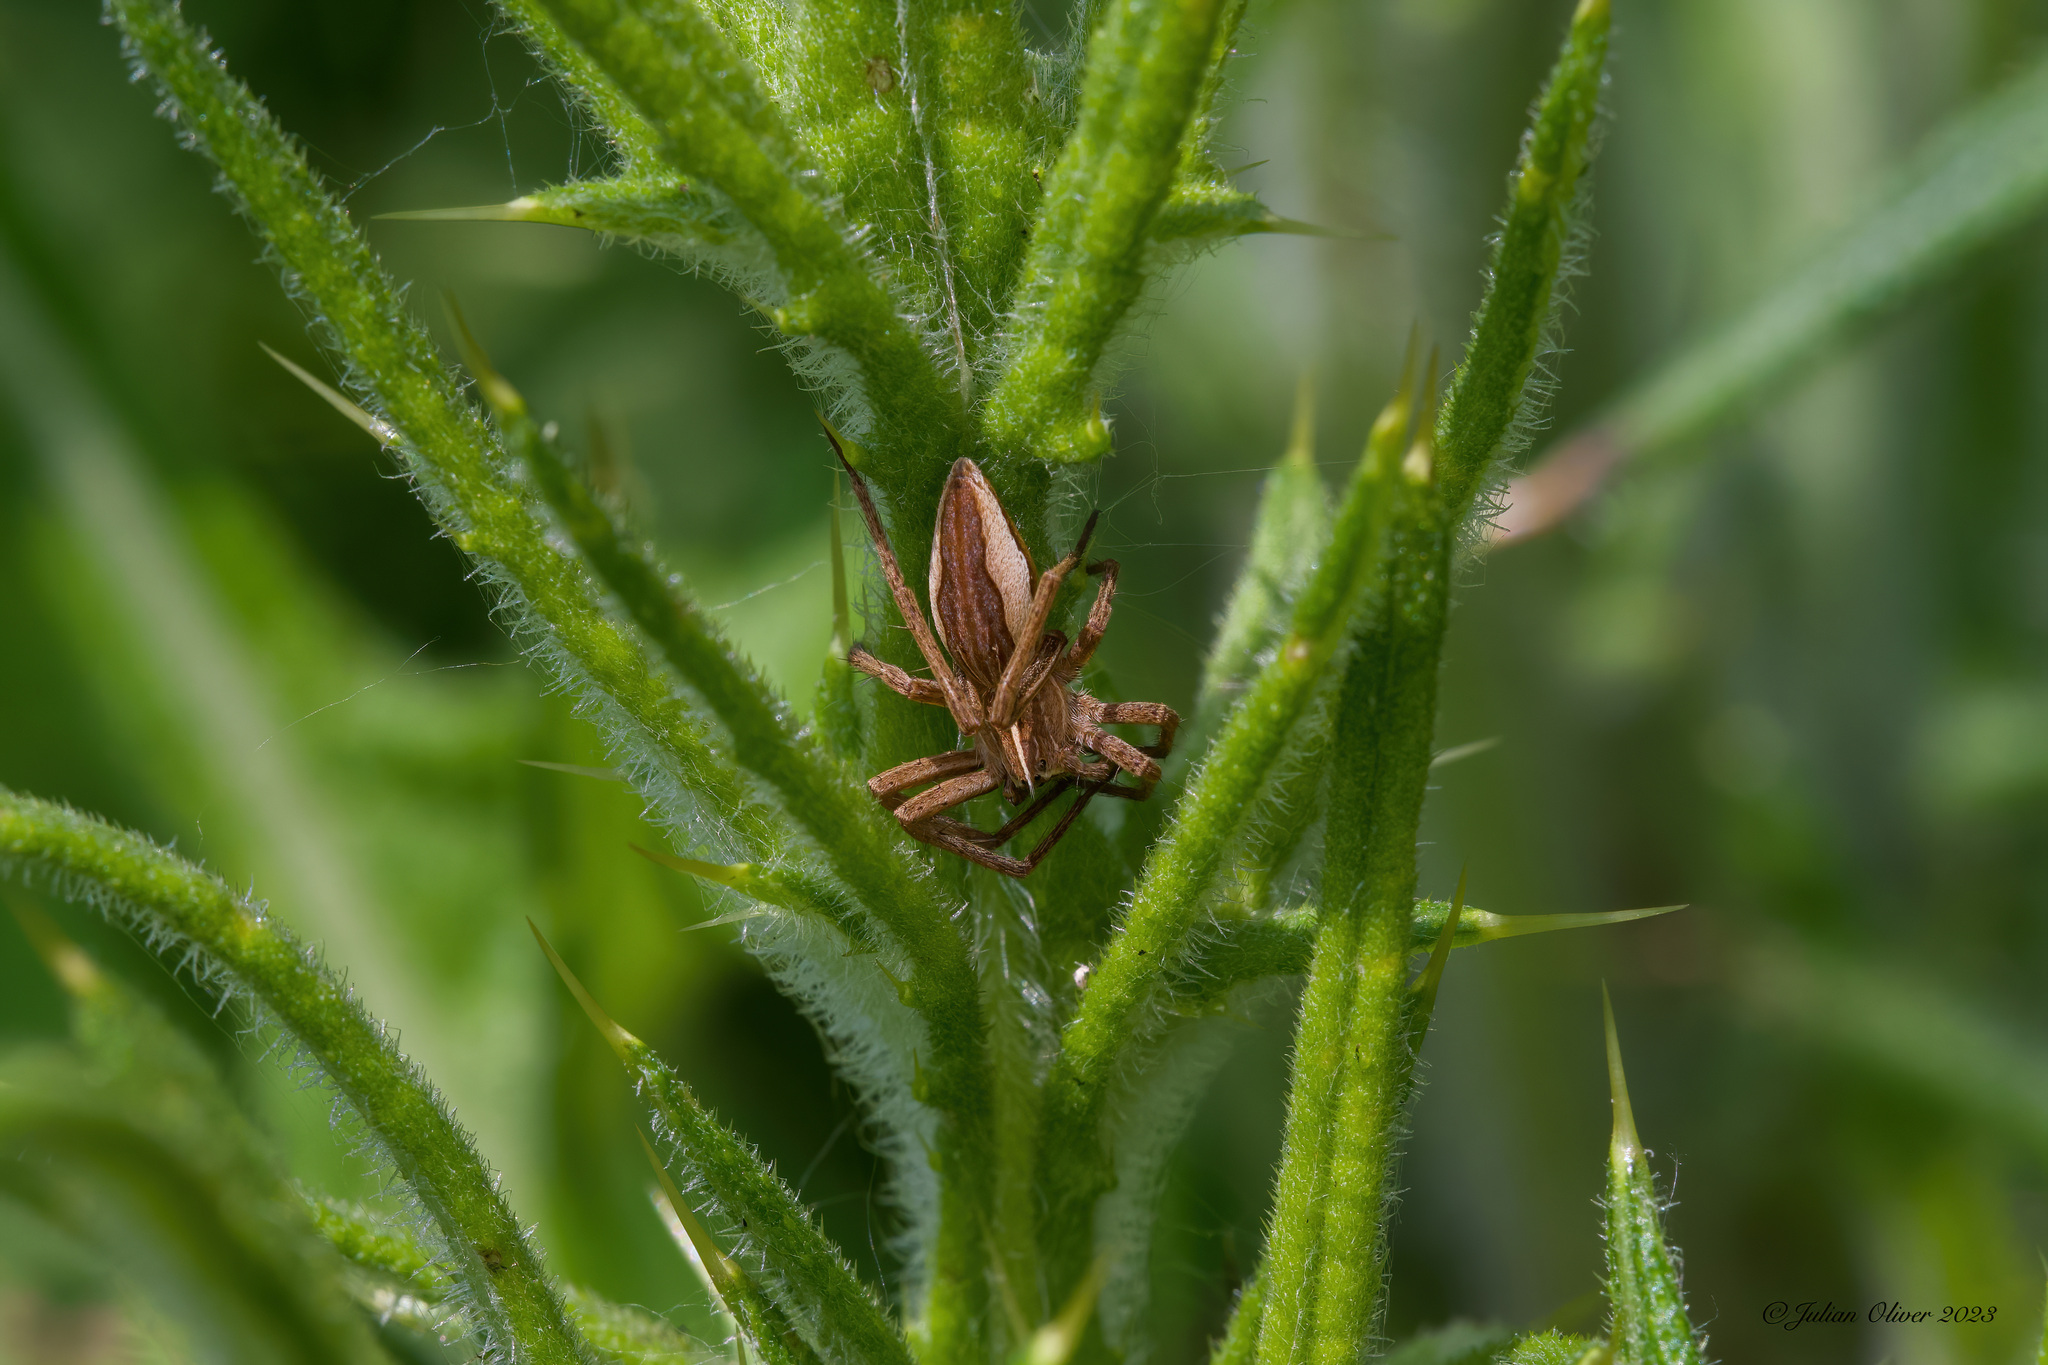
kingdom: Animalia
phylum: Arthropoda
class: Arachnida
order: Araneae
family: Pisauridae
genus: Pisaura
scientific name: Pisaura mirabilis
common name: Tent spider
